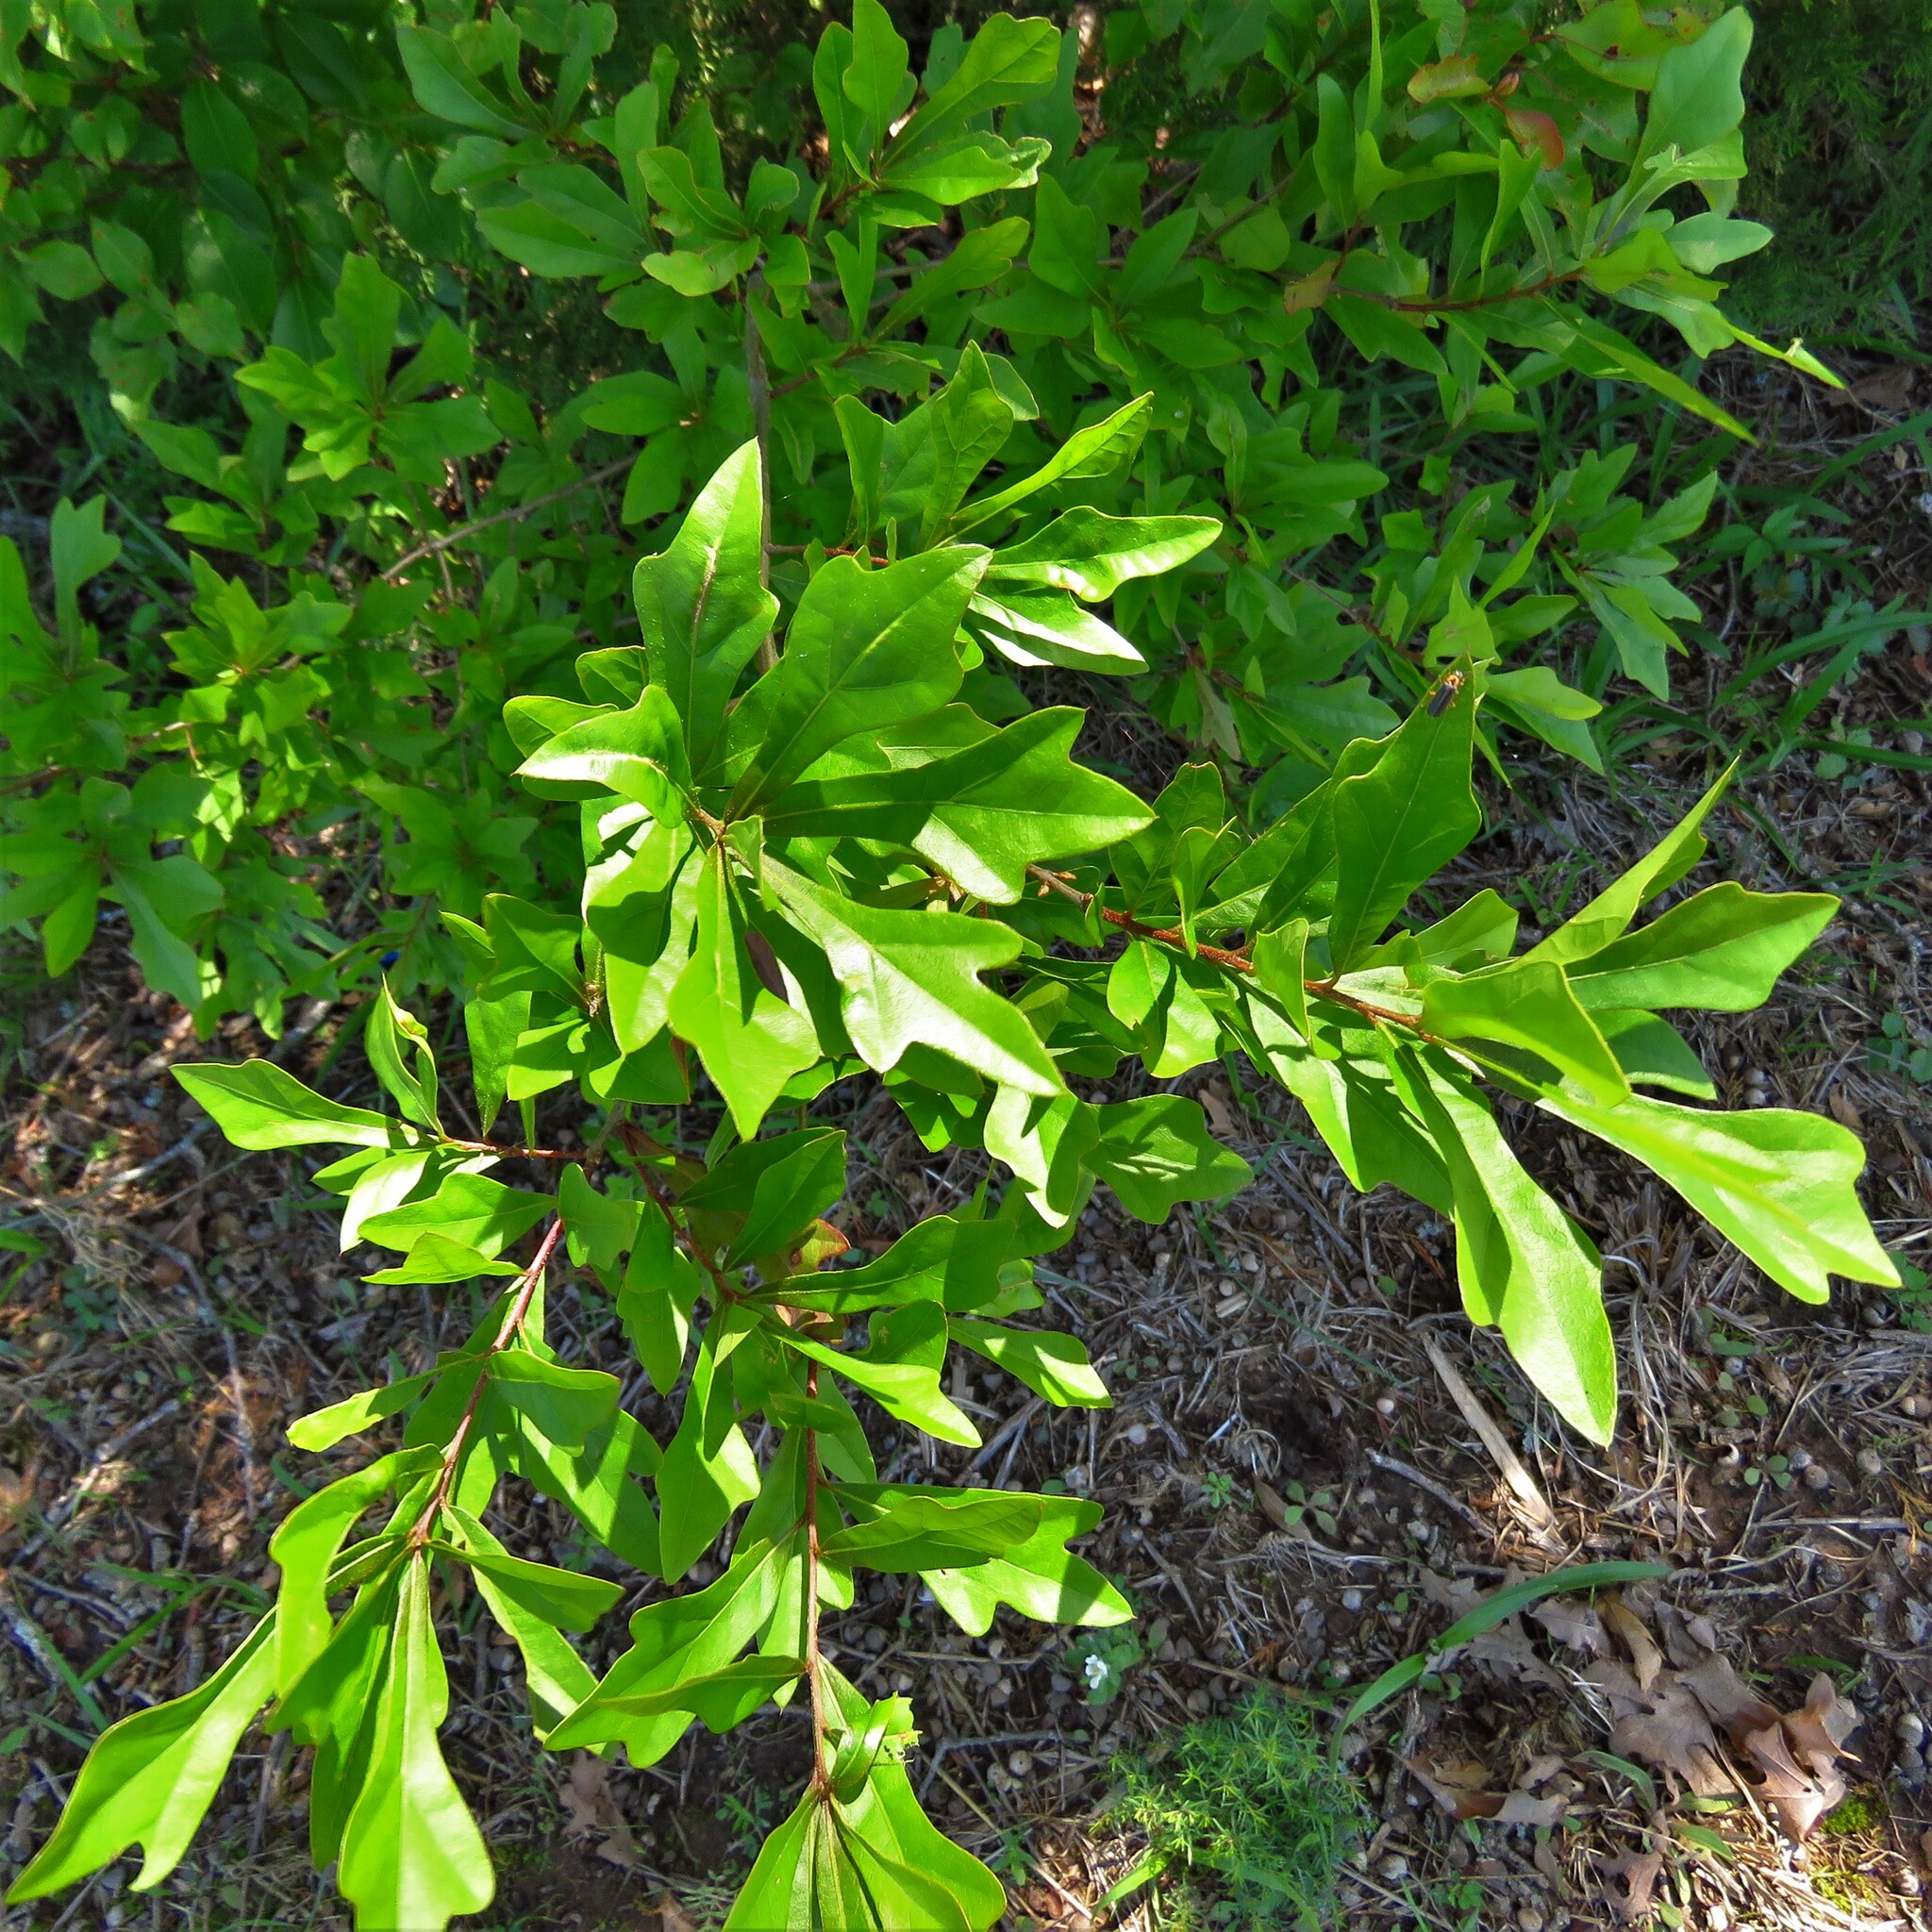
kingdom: Plantae
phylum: Tracheophyta
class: Magnoliopsida
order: Fagales
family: Fagaceae
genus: Quercus
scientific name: Quercus nigra
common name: Water oak
